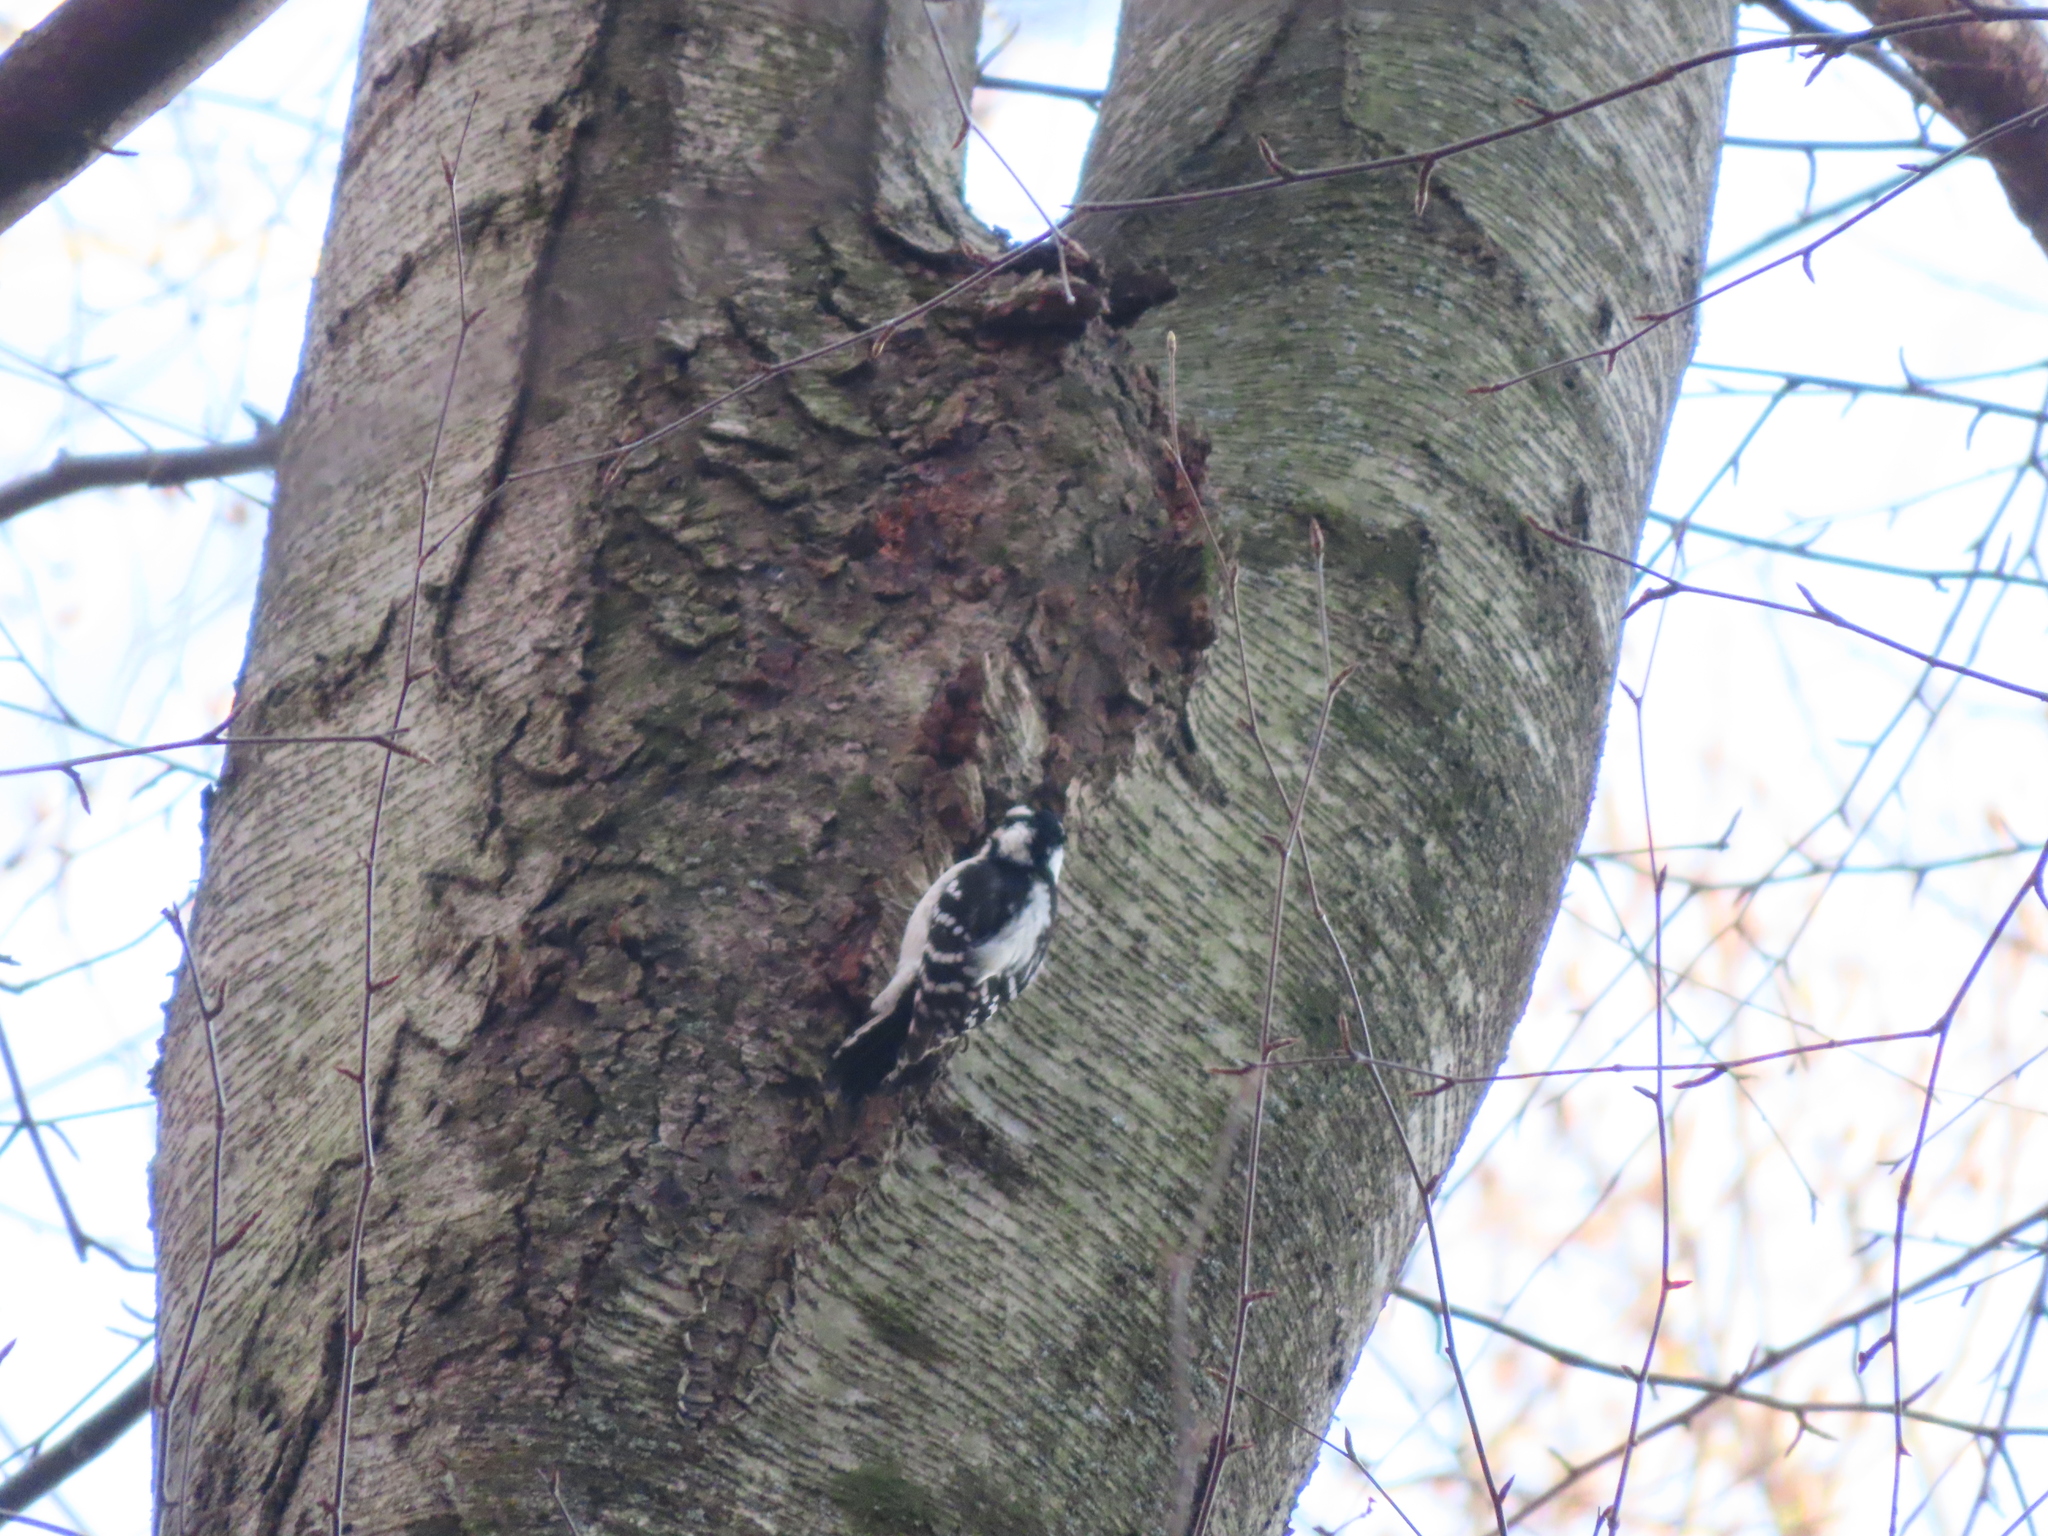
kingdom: Animalia
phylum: Chordata
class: Aves
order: Piciformes
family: Picidae
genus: Dryobates
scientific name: Dryobates pubescens
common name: Downy woodpecker
